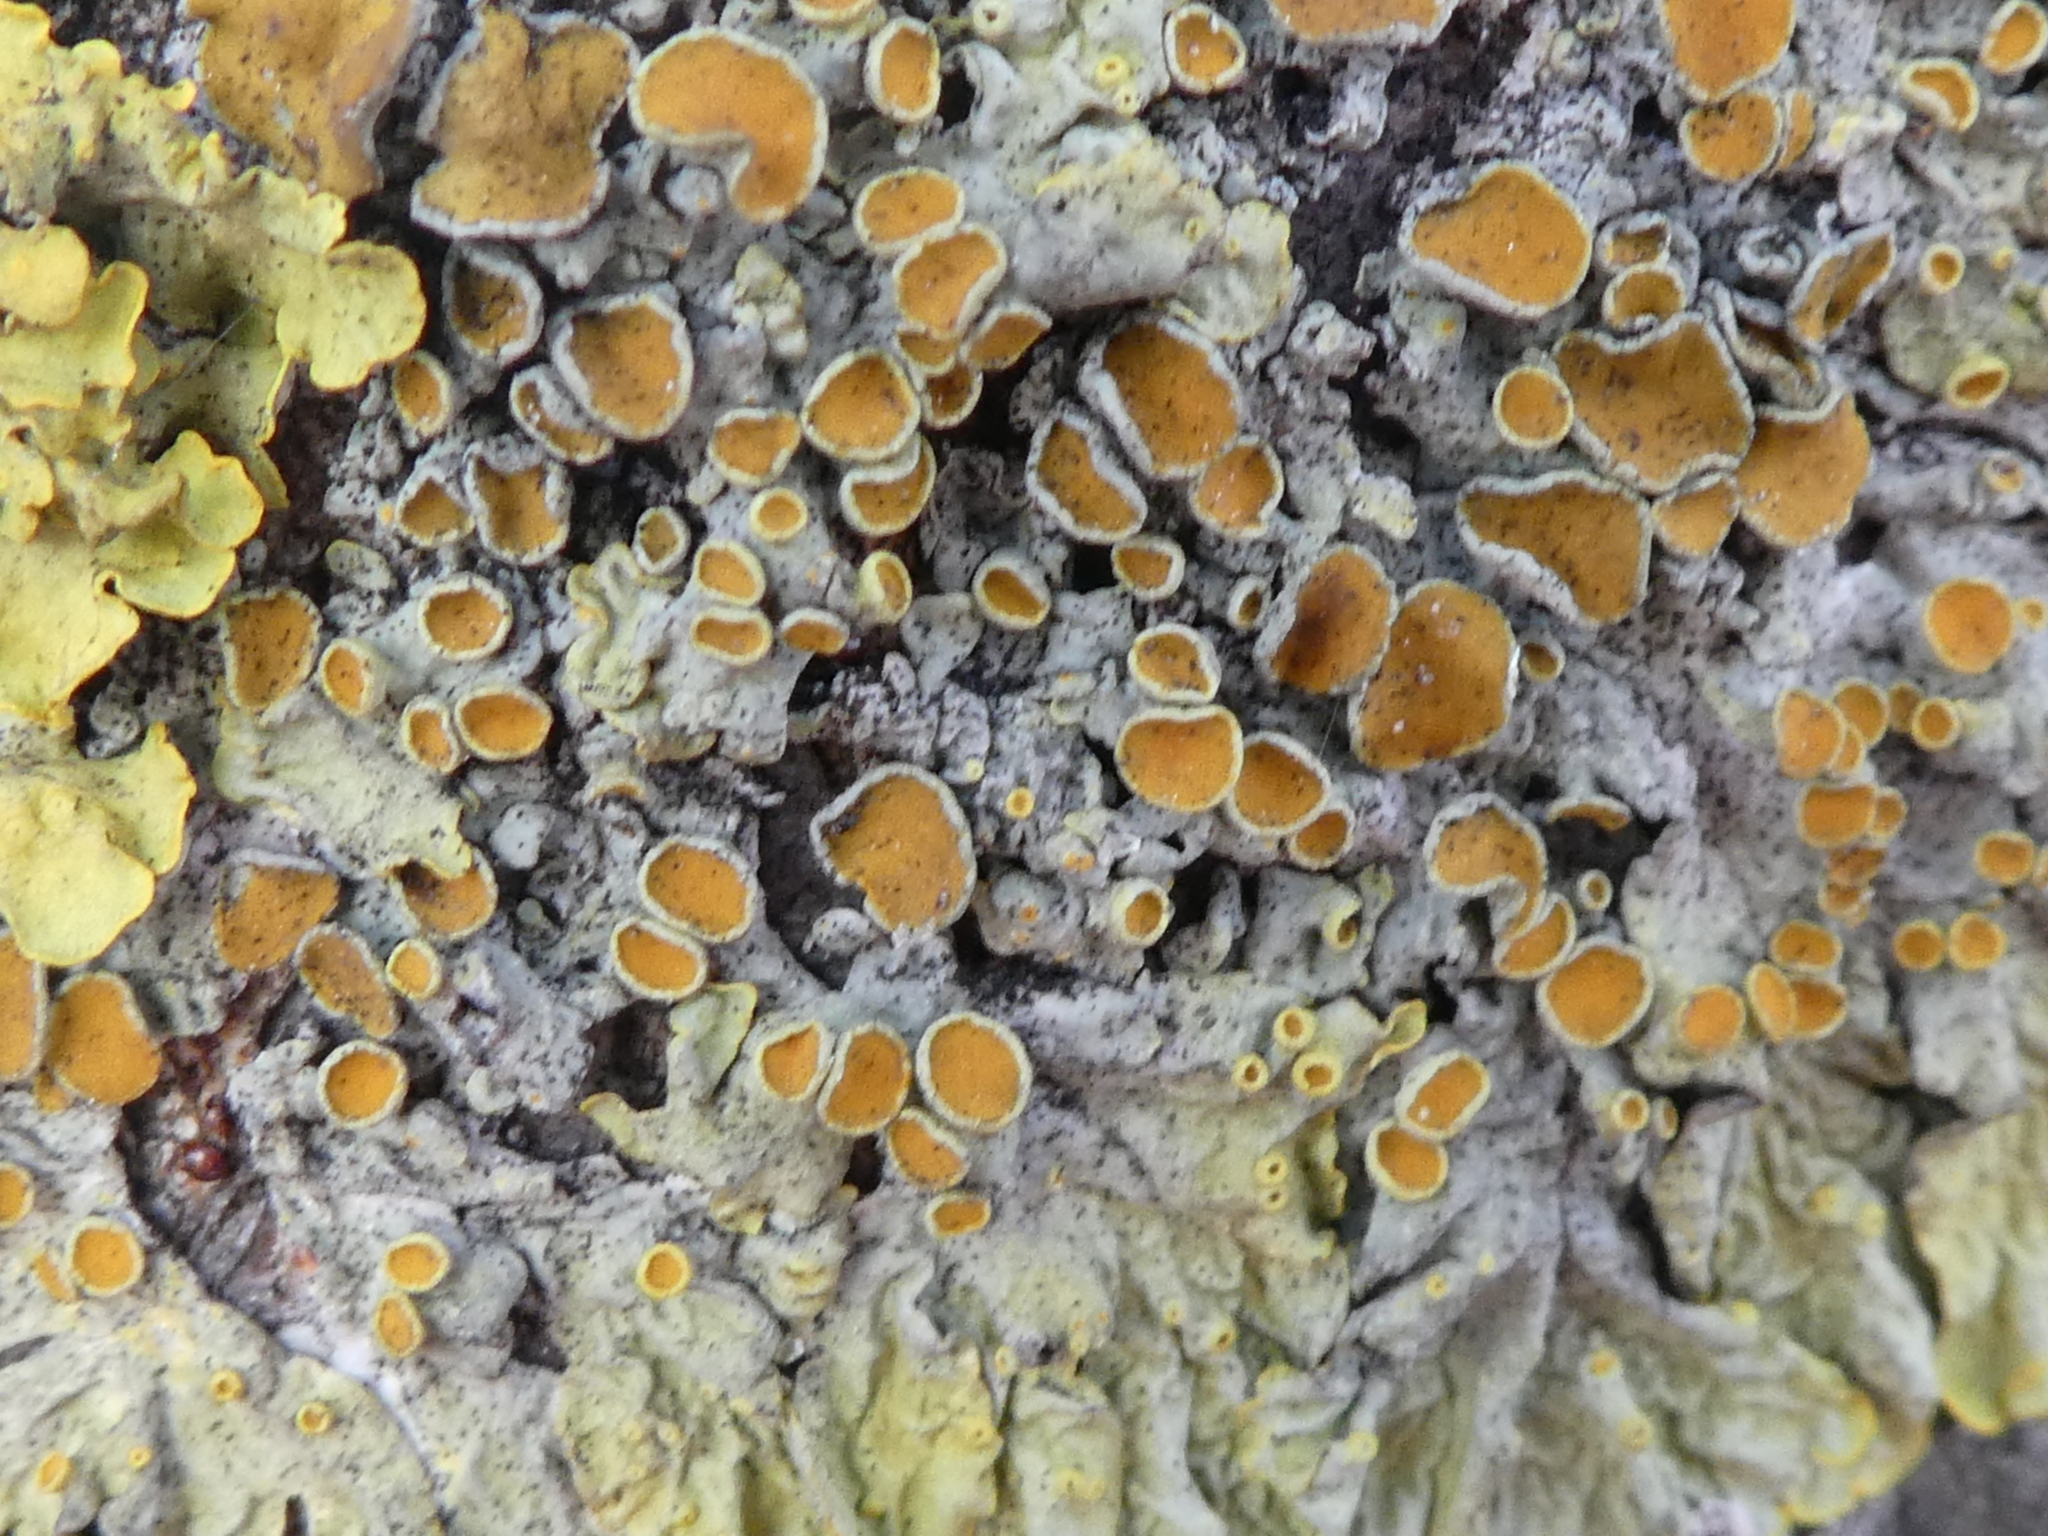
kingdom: Fungi
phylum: Ascomycota
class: Lecanoromycetes
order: Teloschistales
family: Teloschistaceae
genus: Xanthoria
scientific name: Xanthoria parietina
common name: Common orange lichen
